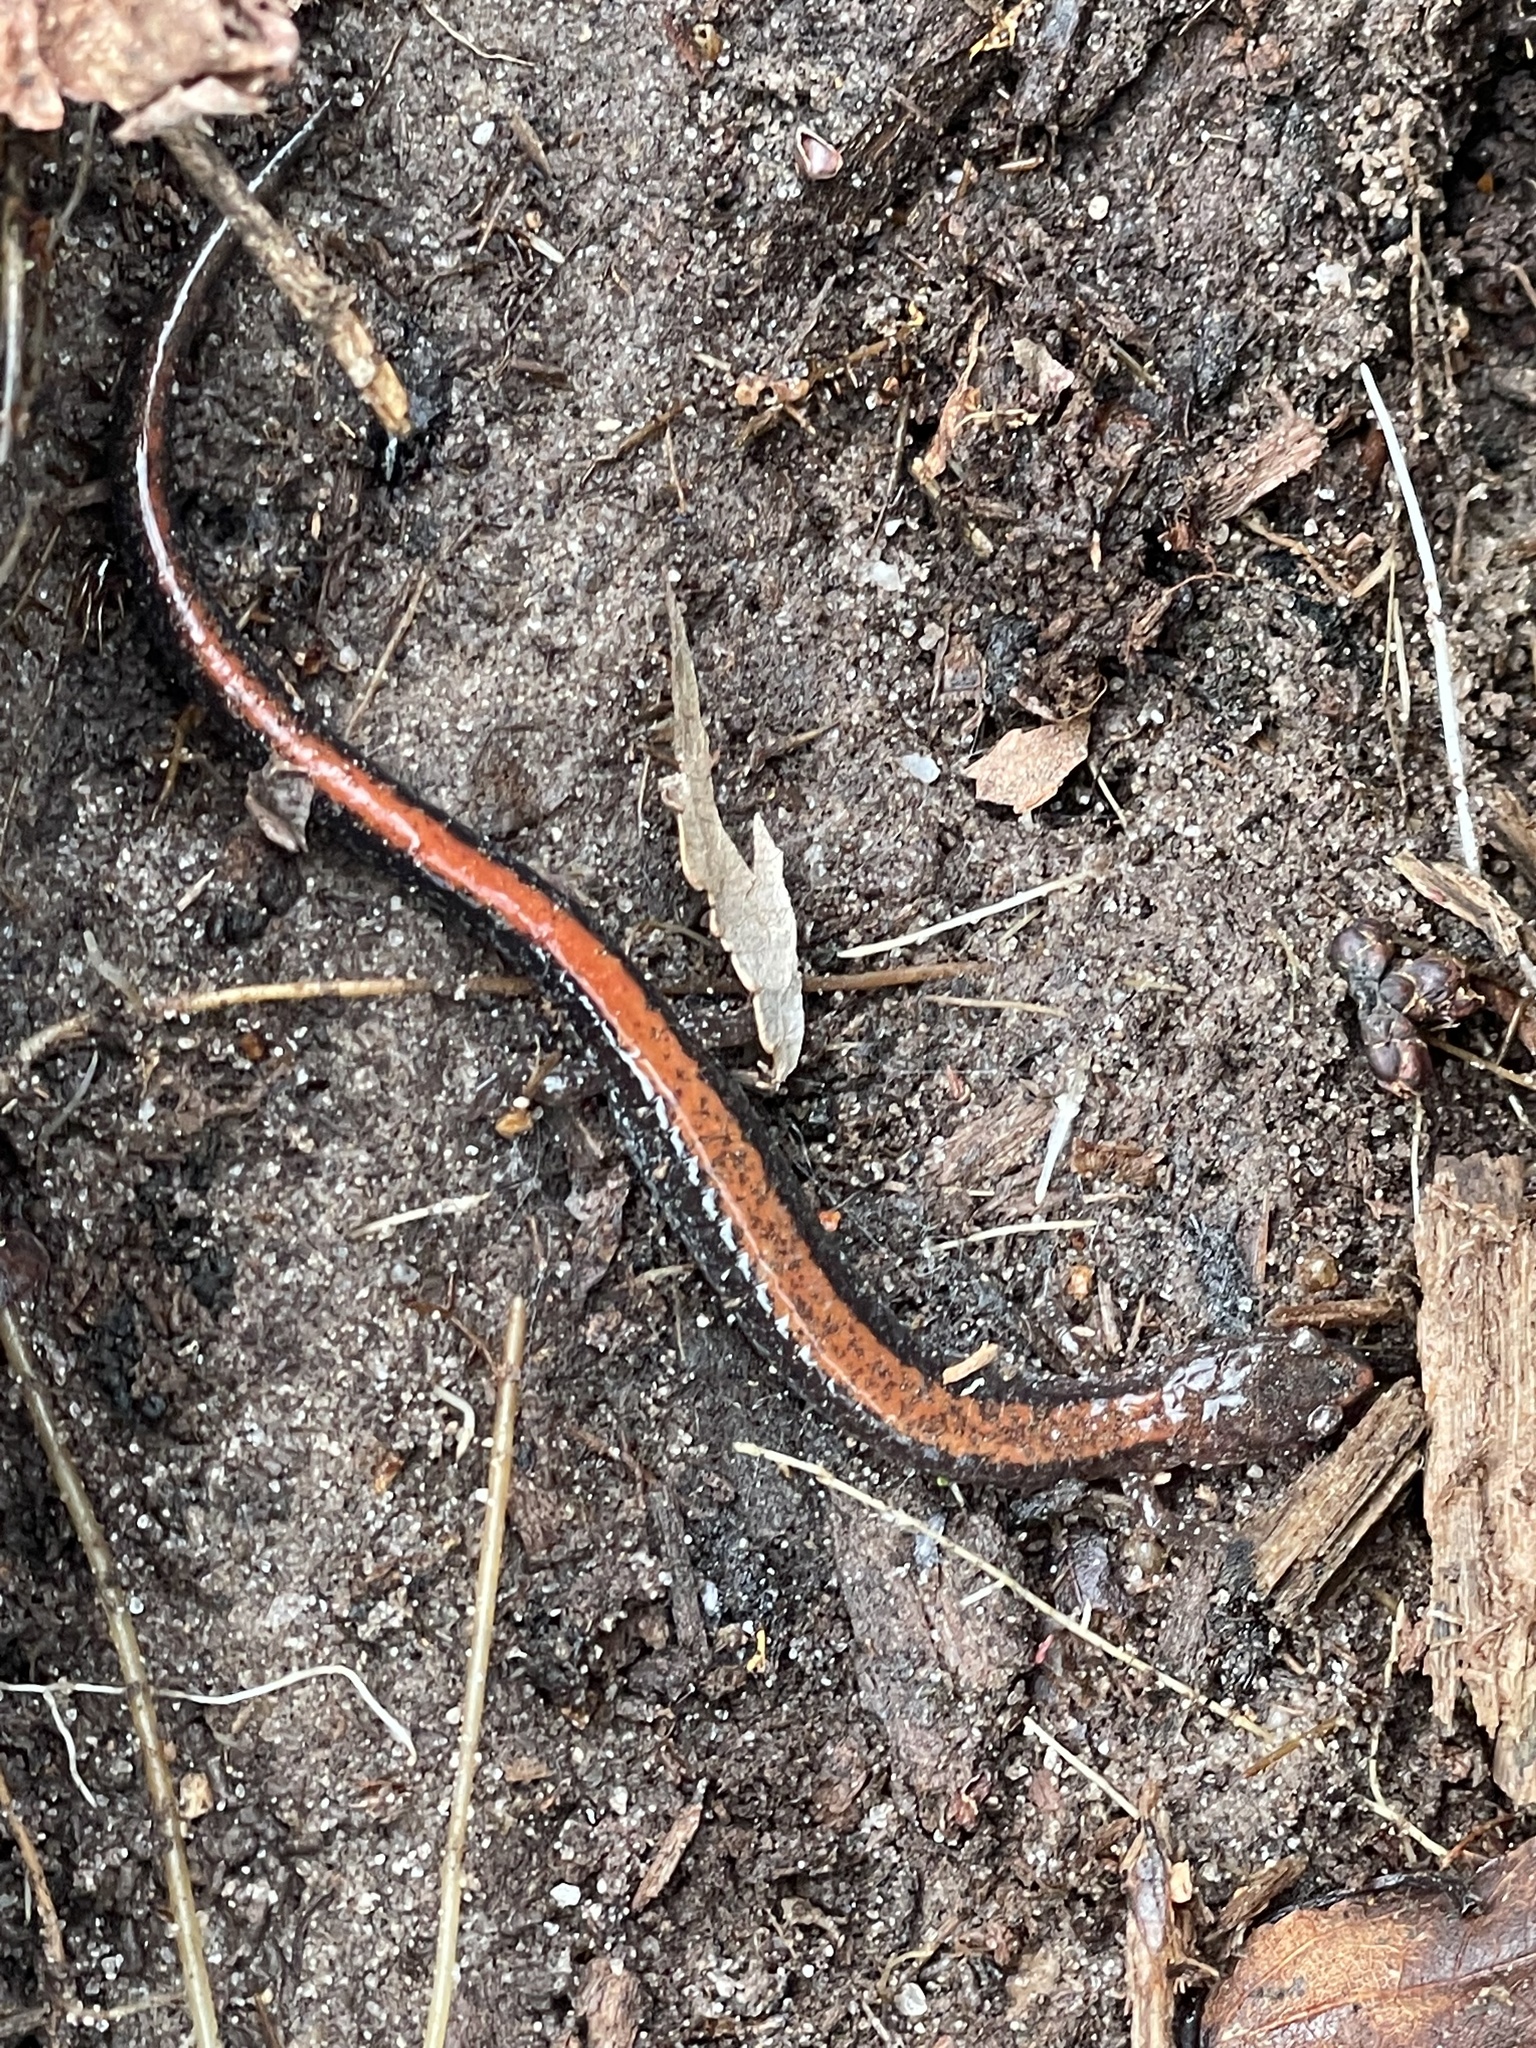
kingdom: Animalia
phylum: Chordata
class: Amphibia
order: Caudata
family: Plethodontidae
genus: Plethodon
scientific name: Plethodon cinereus
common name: Redback salamander
